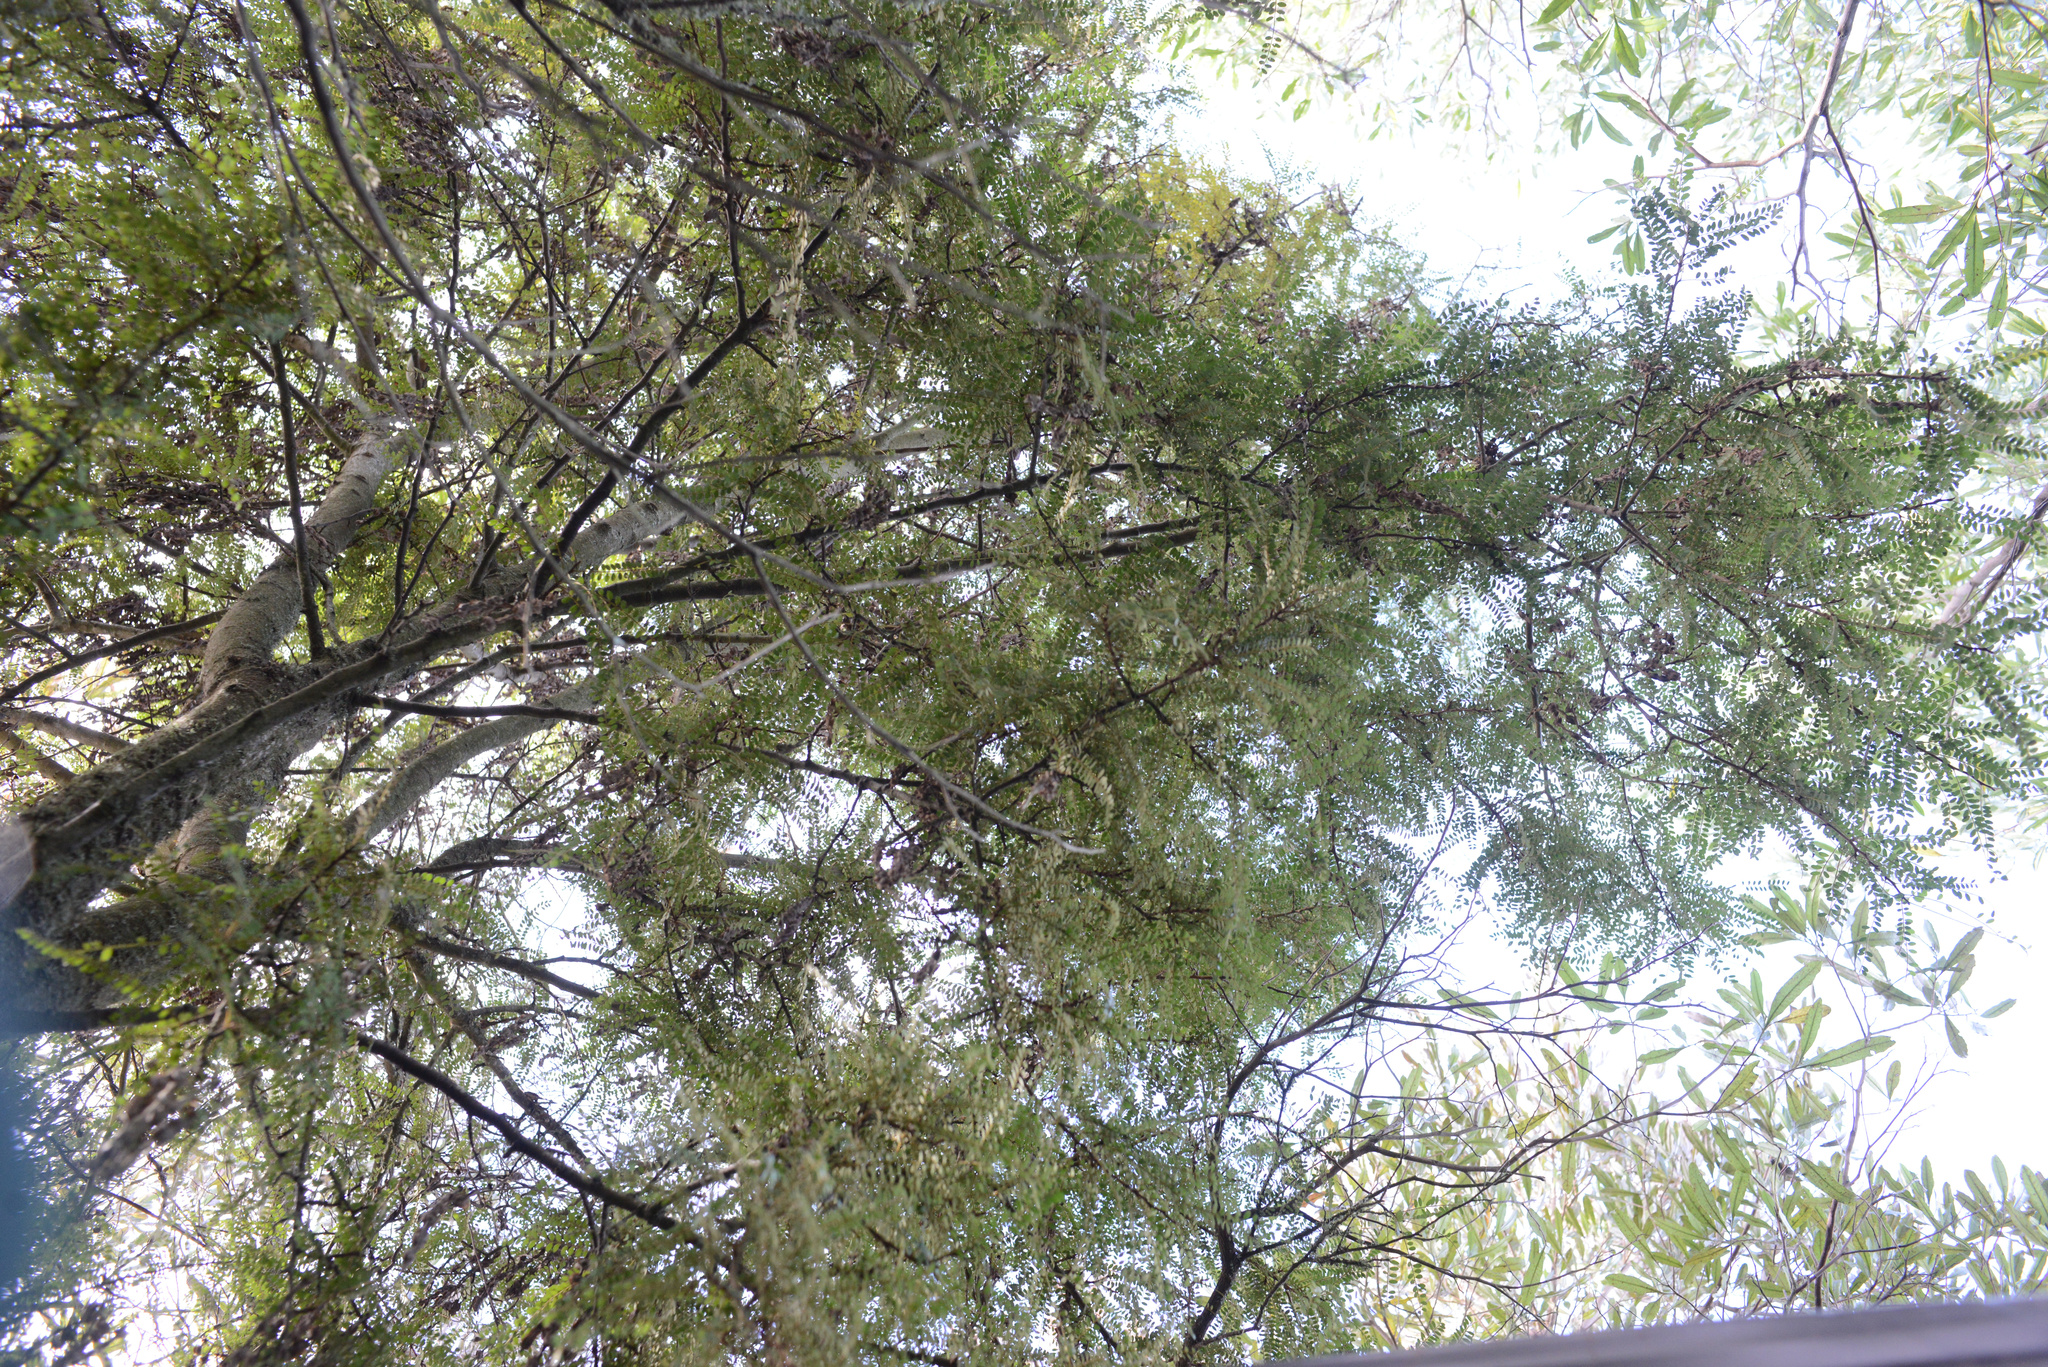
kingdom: Plantae
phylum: Tracheophyta
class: Magnoliopsida
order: Fabales
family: Fabaceae
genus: Sophora
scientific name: Sophora microphylla
